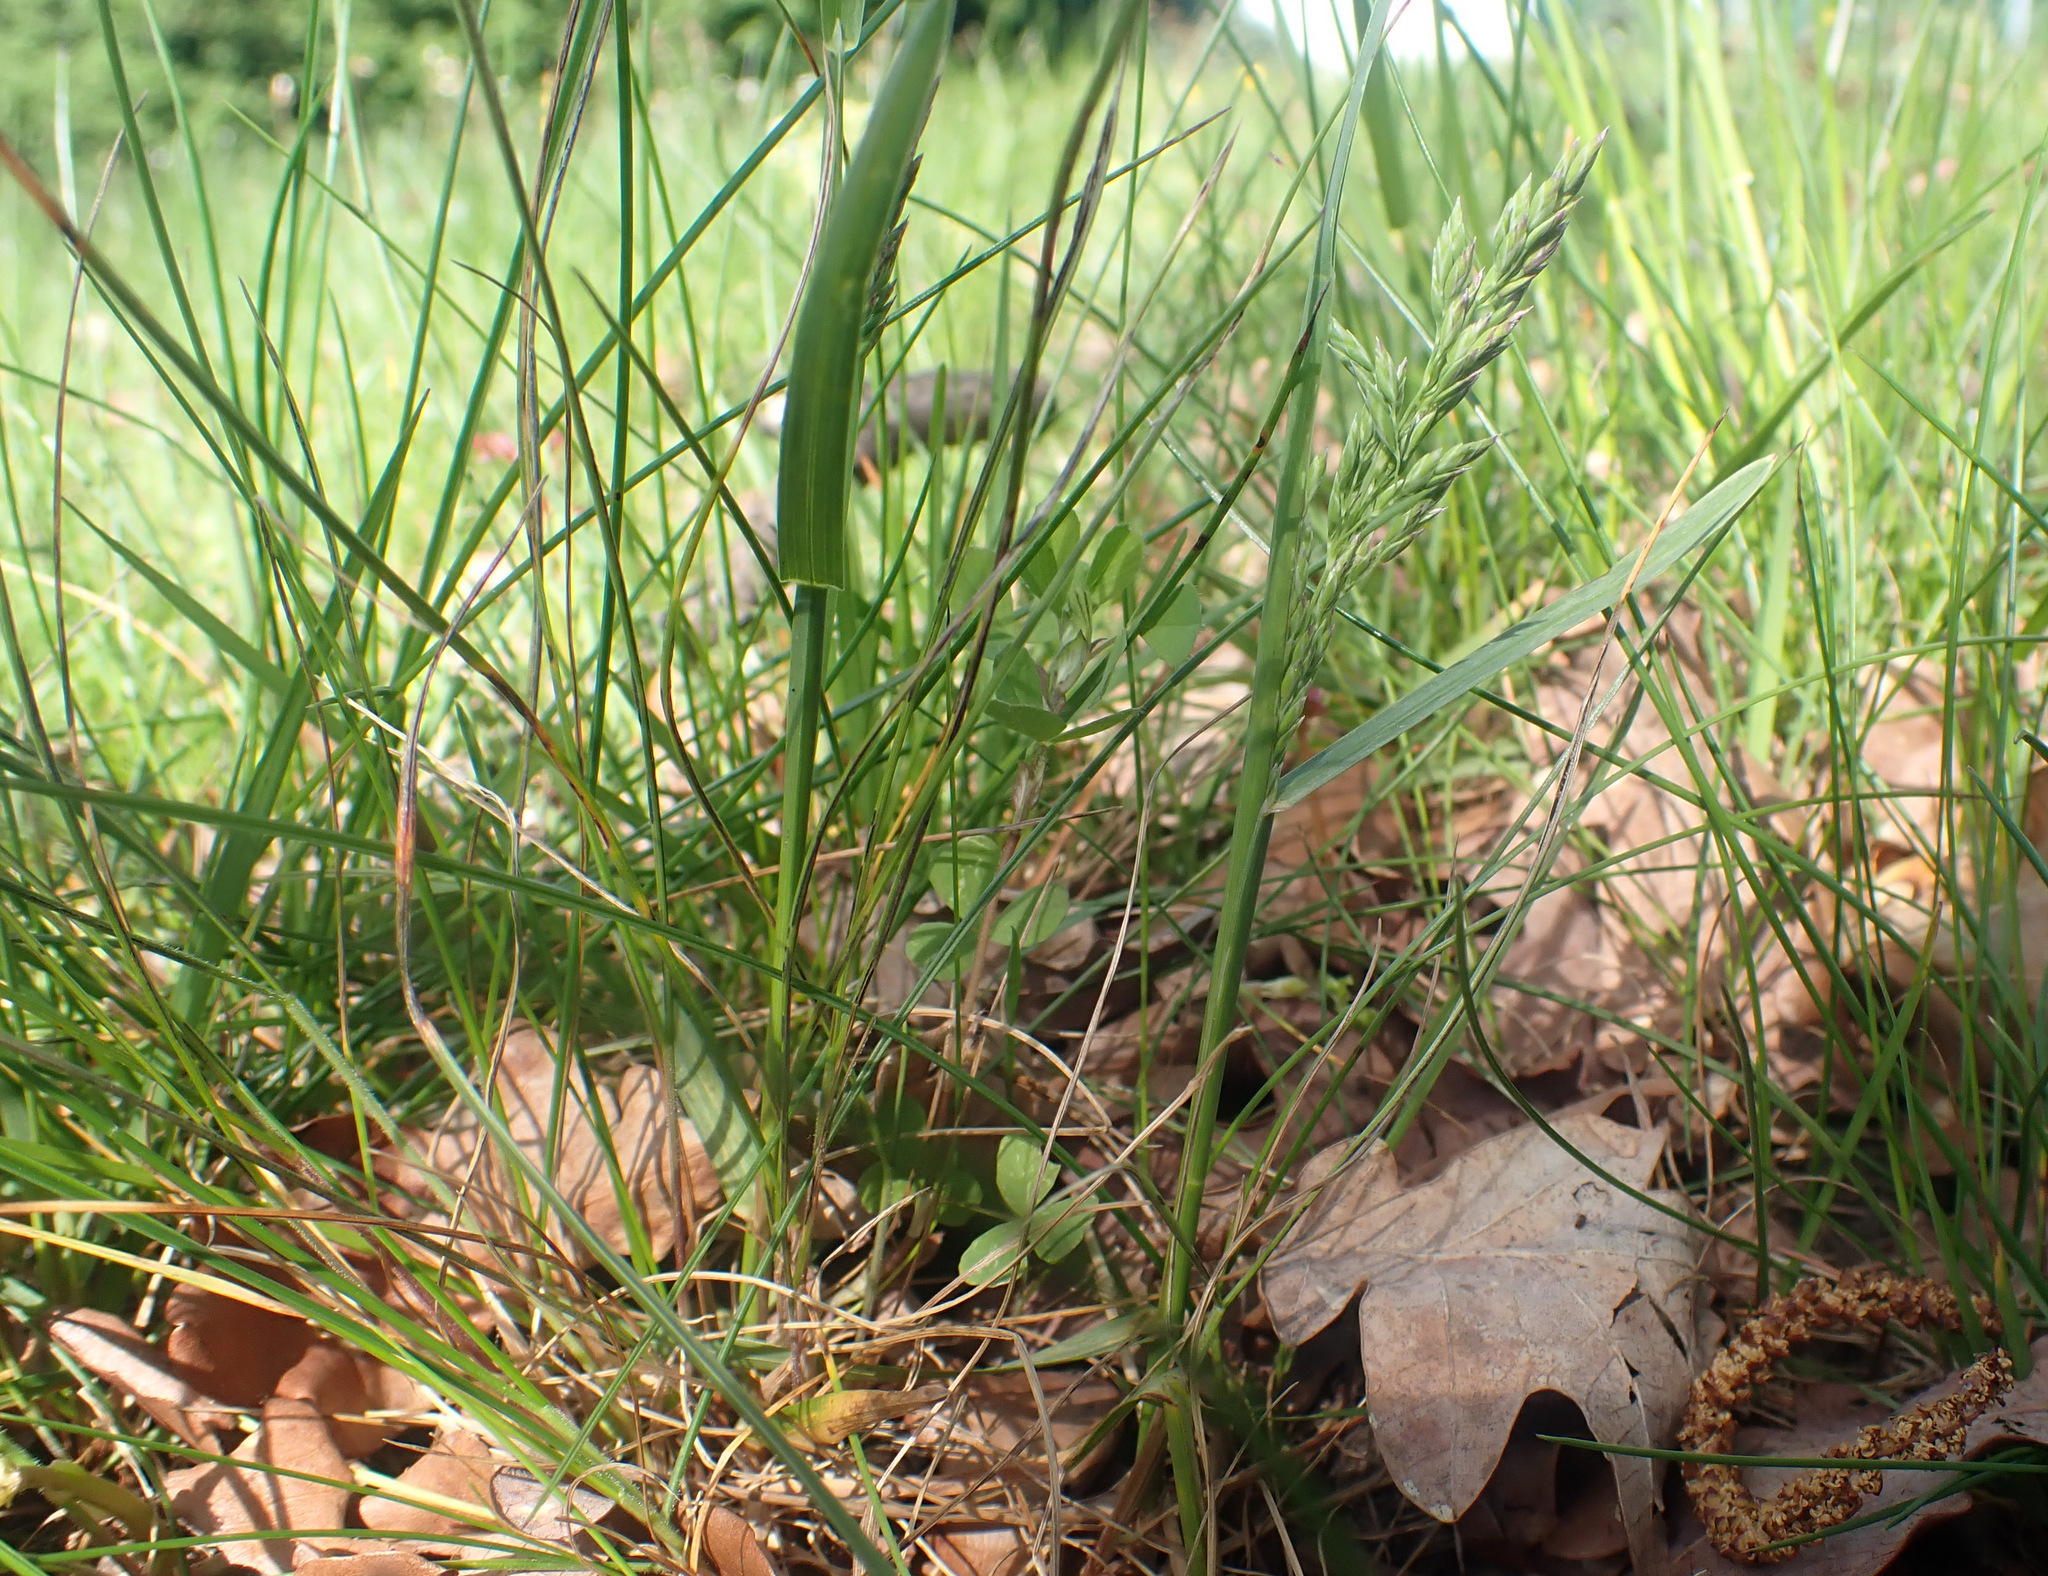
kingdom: Plantae
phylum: Tracheophyta
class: Liliopsida
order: Poales
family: Poaceae
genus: Poa
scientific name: Poa humilis
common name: Spreading meadow-grass
